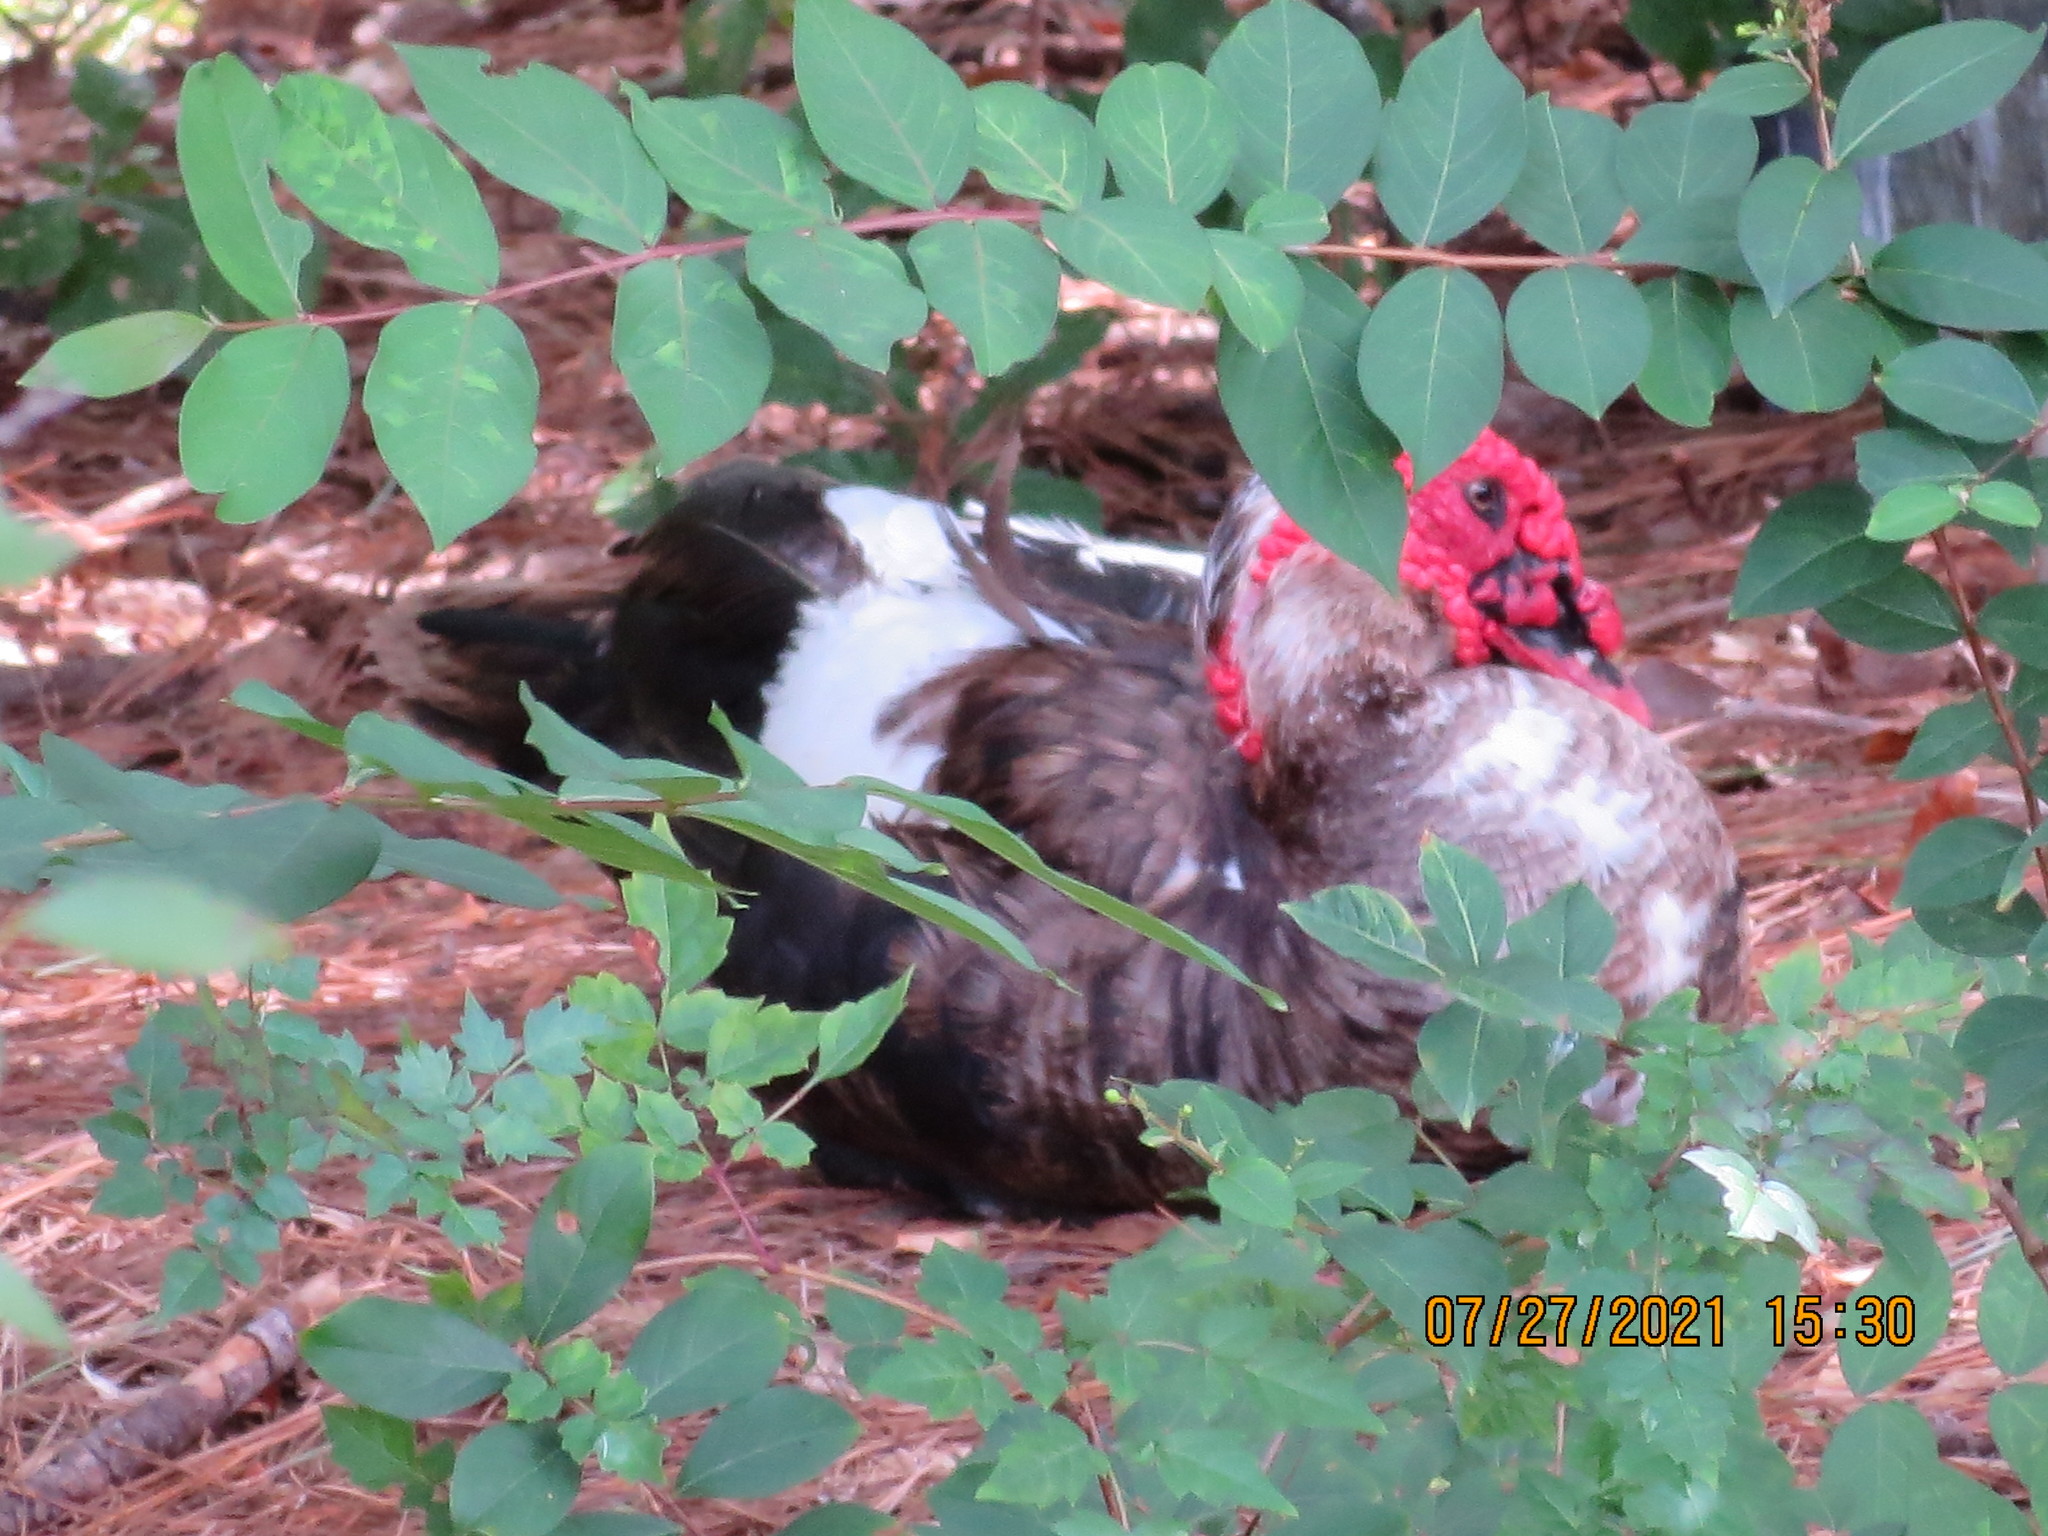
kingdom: Animalia
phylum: Chordata
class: Aves
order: Anseriformes
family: Anatidae
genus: Cairina
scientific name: Cairina moschata
